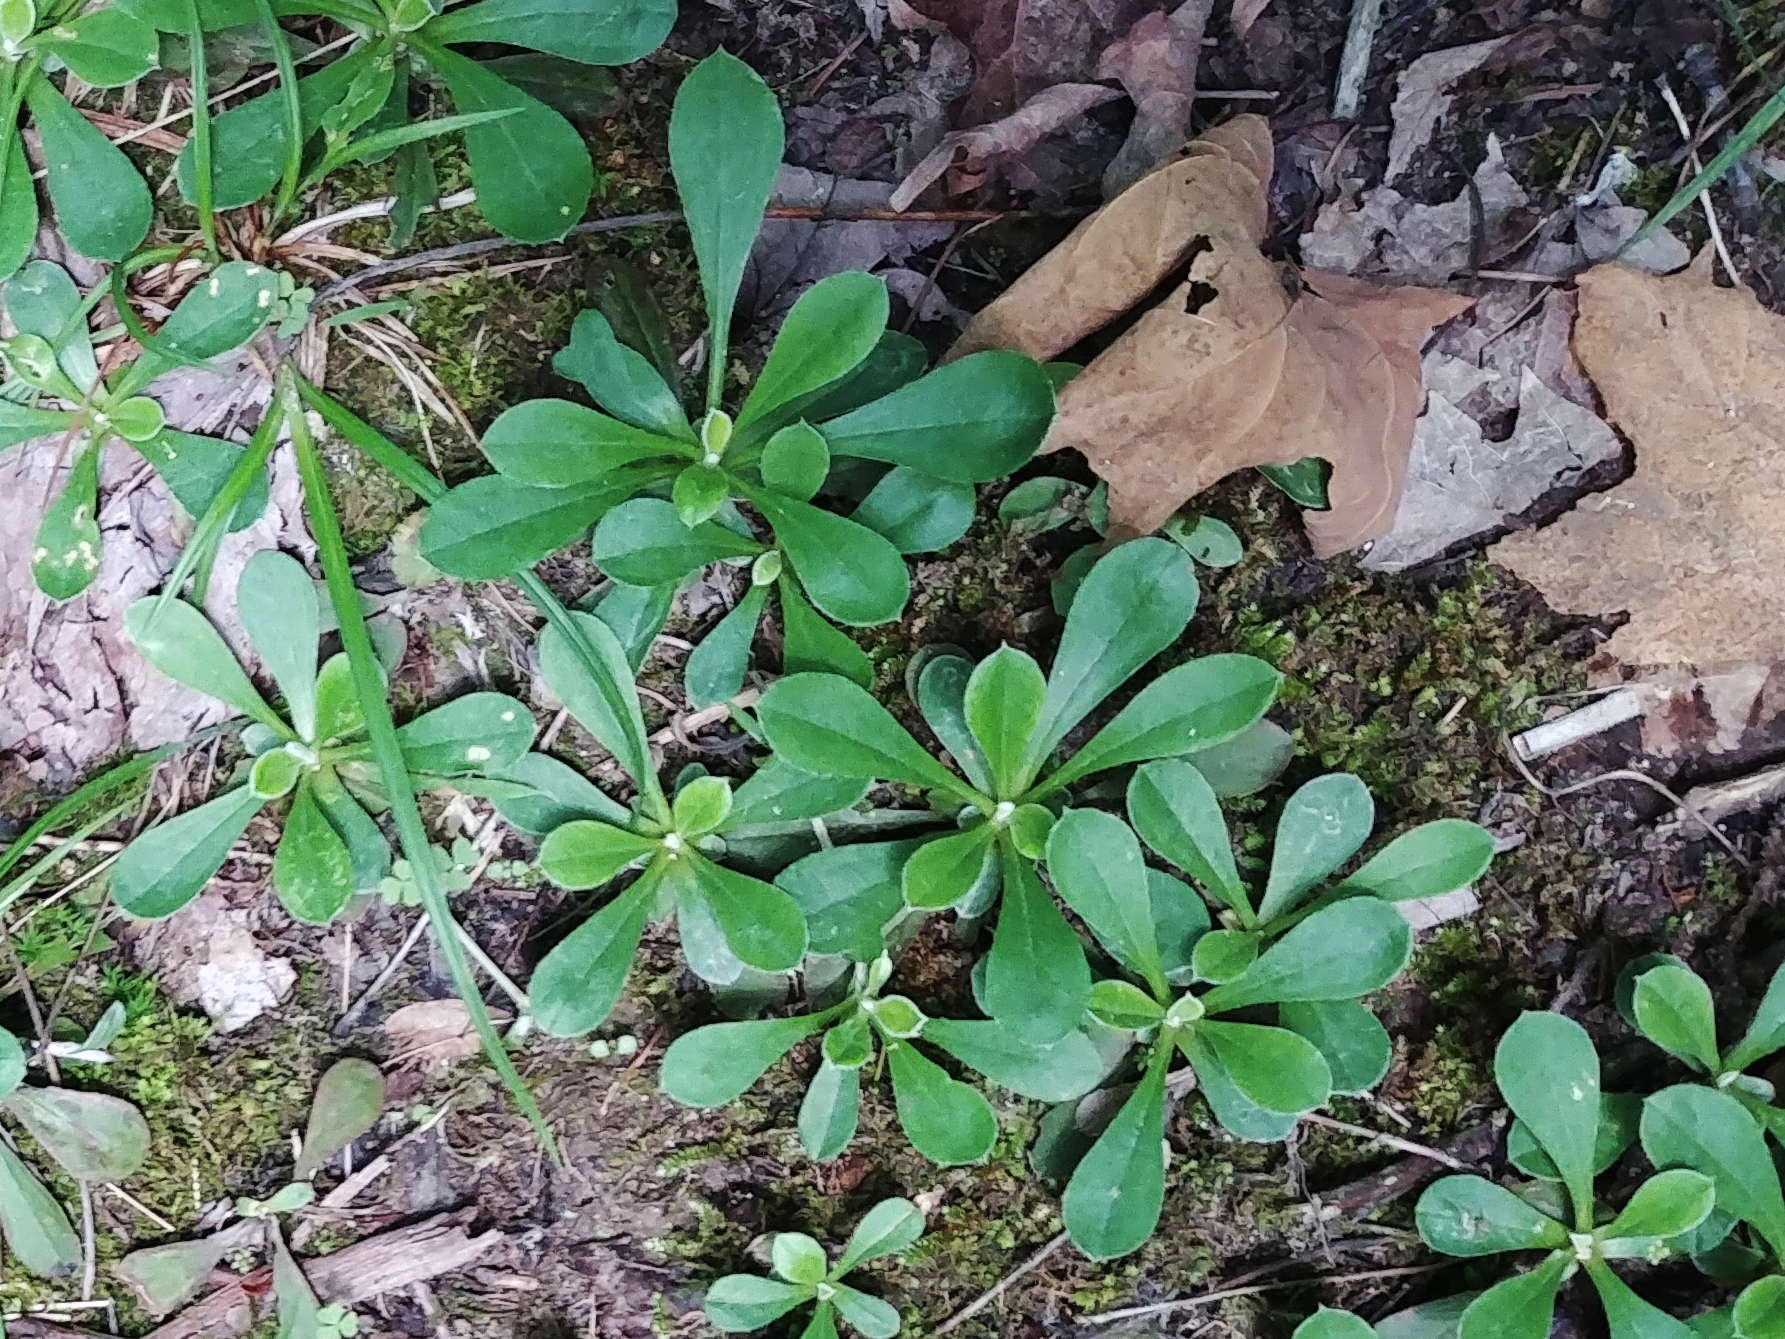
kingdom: Plantae
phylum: Tracheophyta
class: Magnoliopsida
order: Asterales
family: Asteraceae
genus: Antennaria
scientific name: Antennaria neglecta
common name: Field pussytoes
